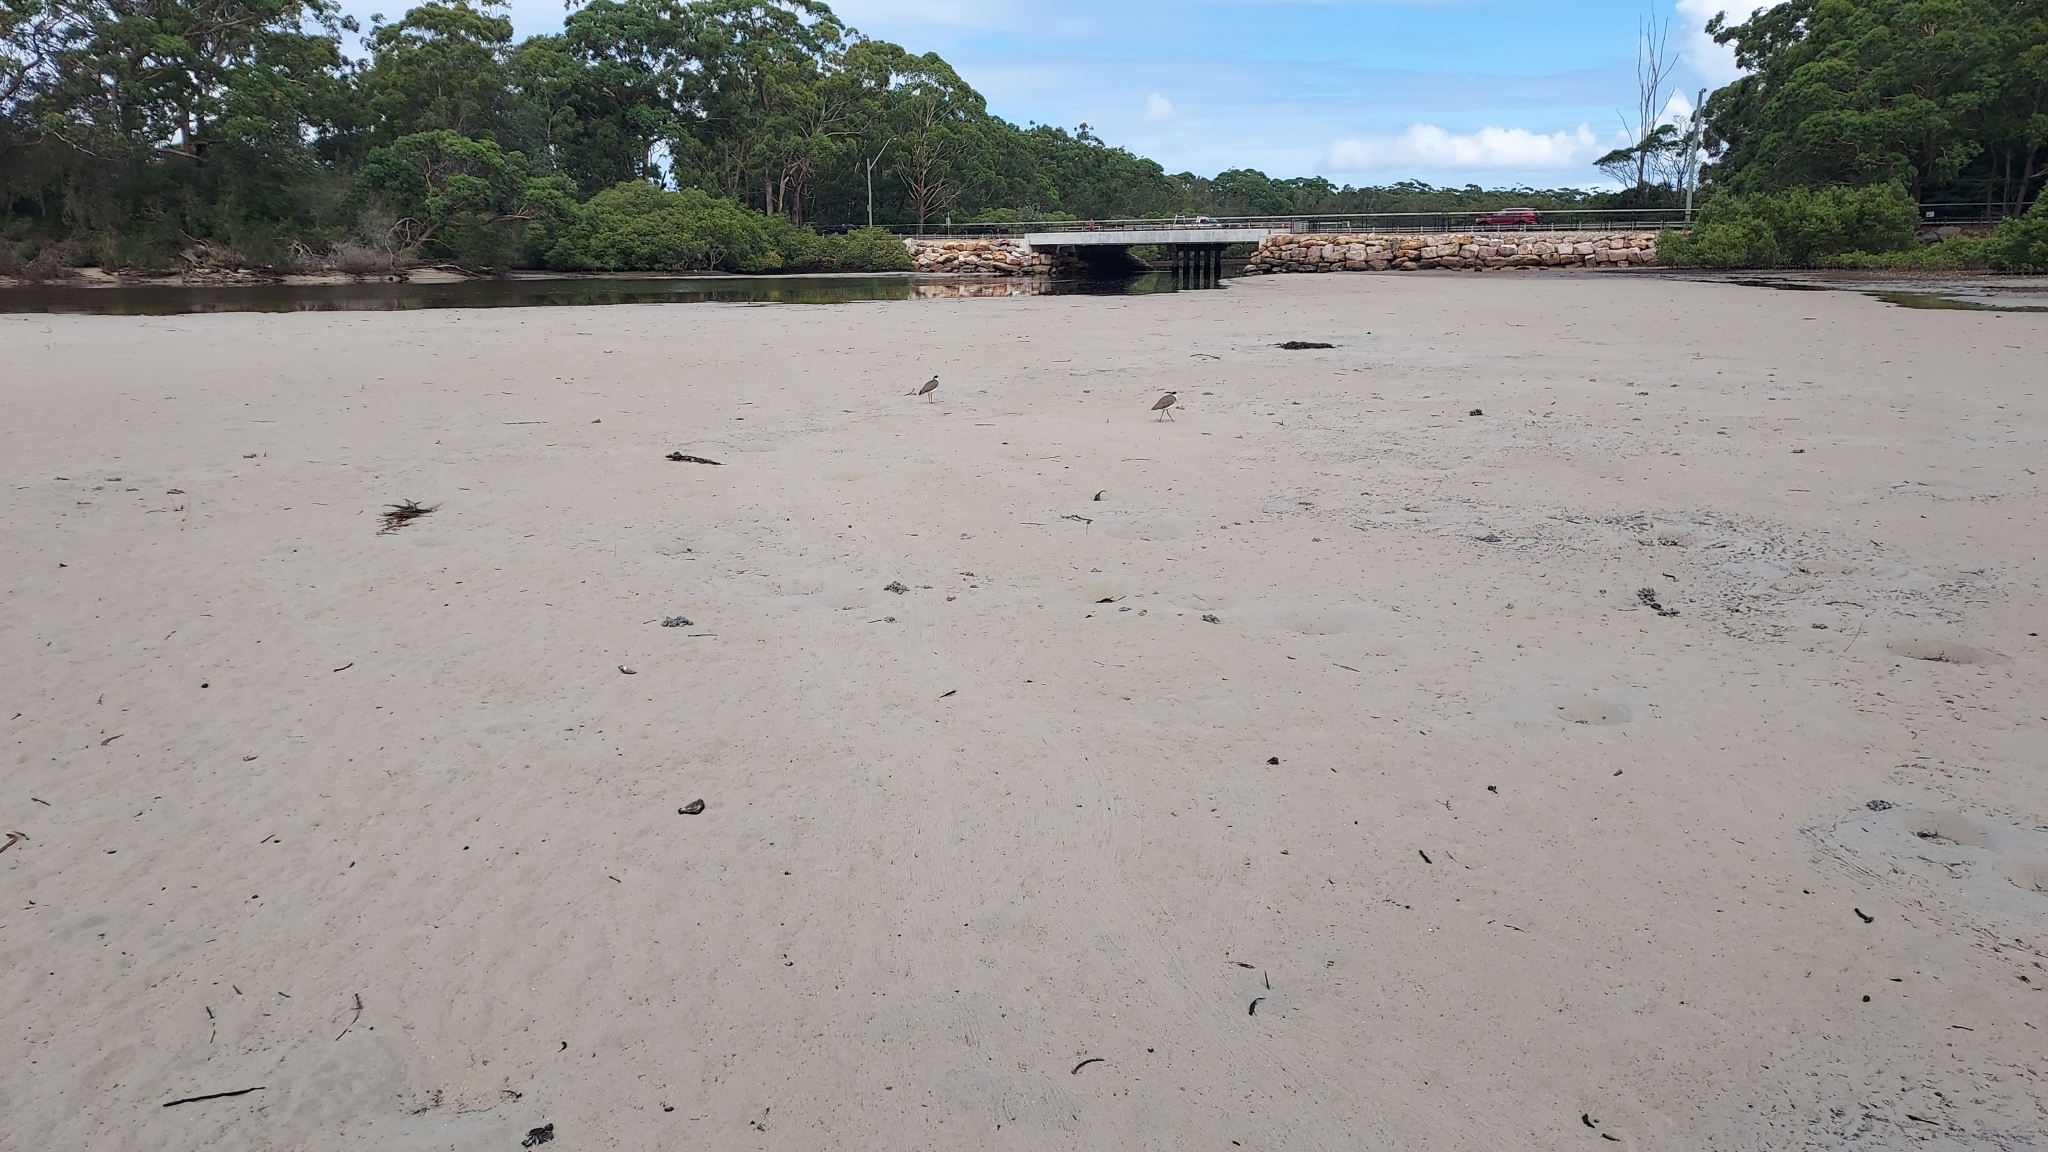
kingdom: Animalia
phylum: Chordata
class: Aves
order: Charadriiformes
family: Charadriidae
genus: Vanellus
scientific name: Vanellus miles
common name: Masked lapwing
